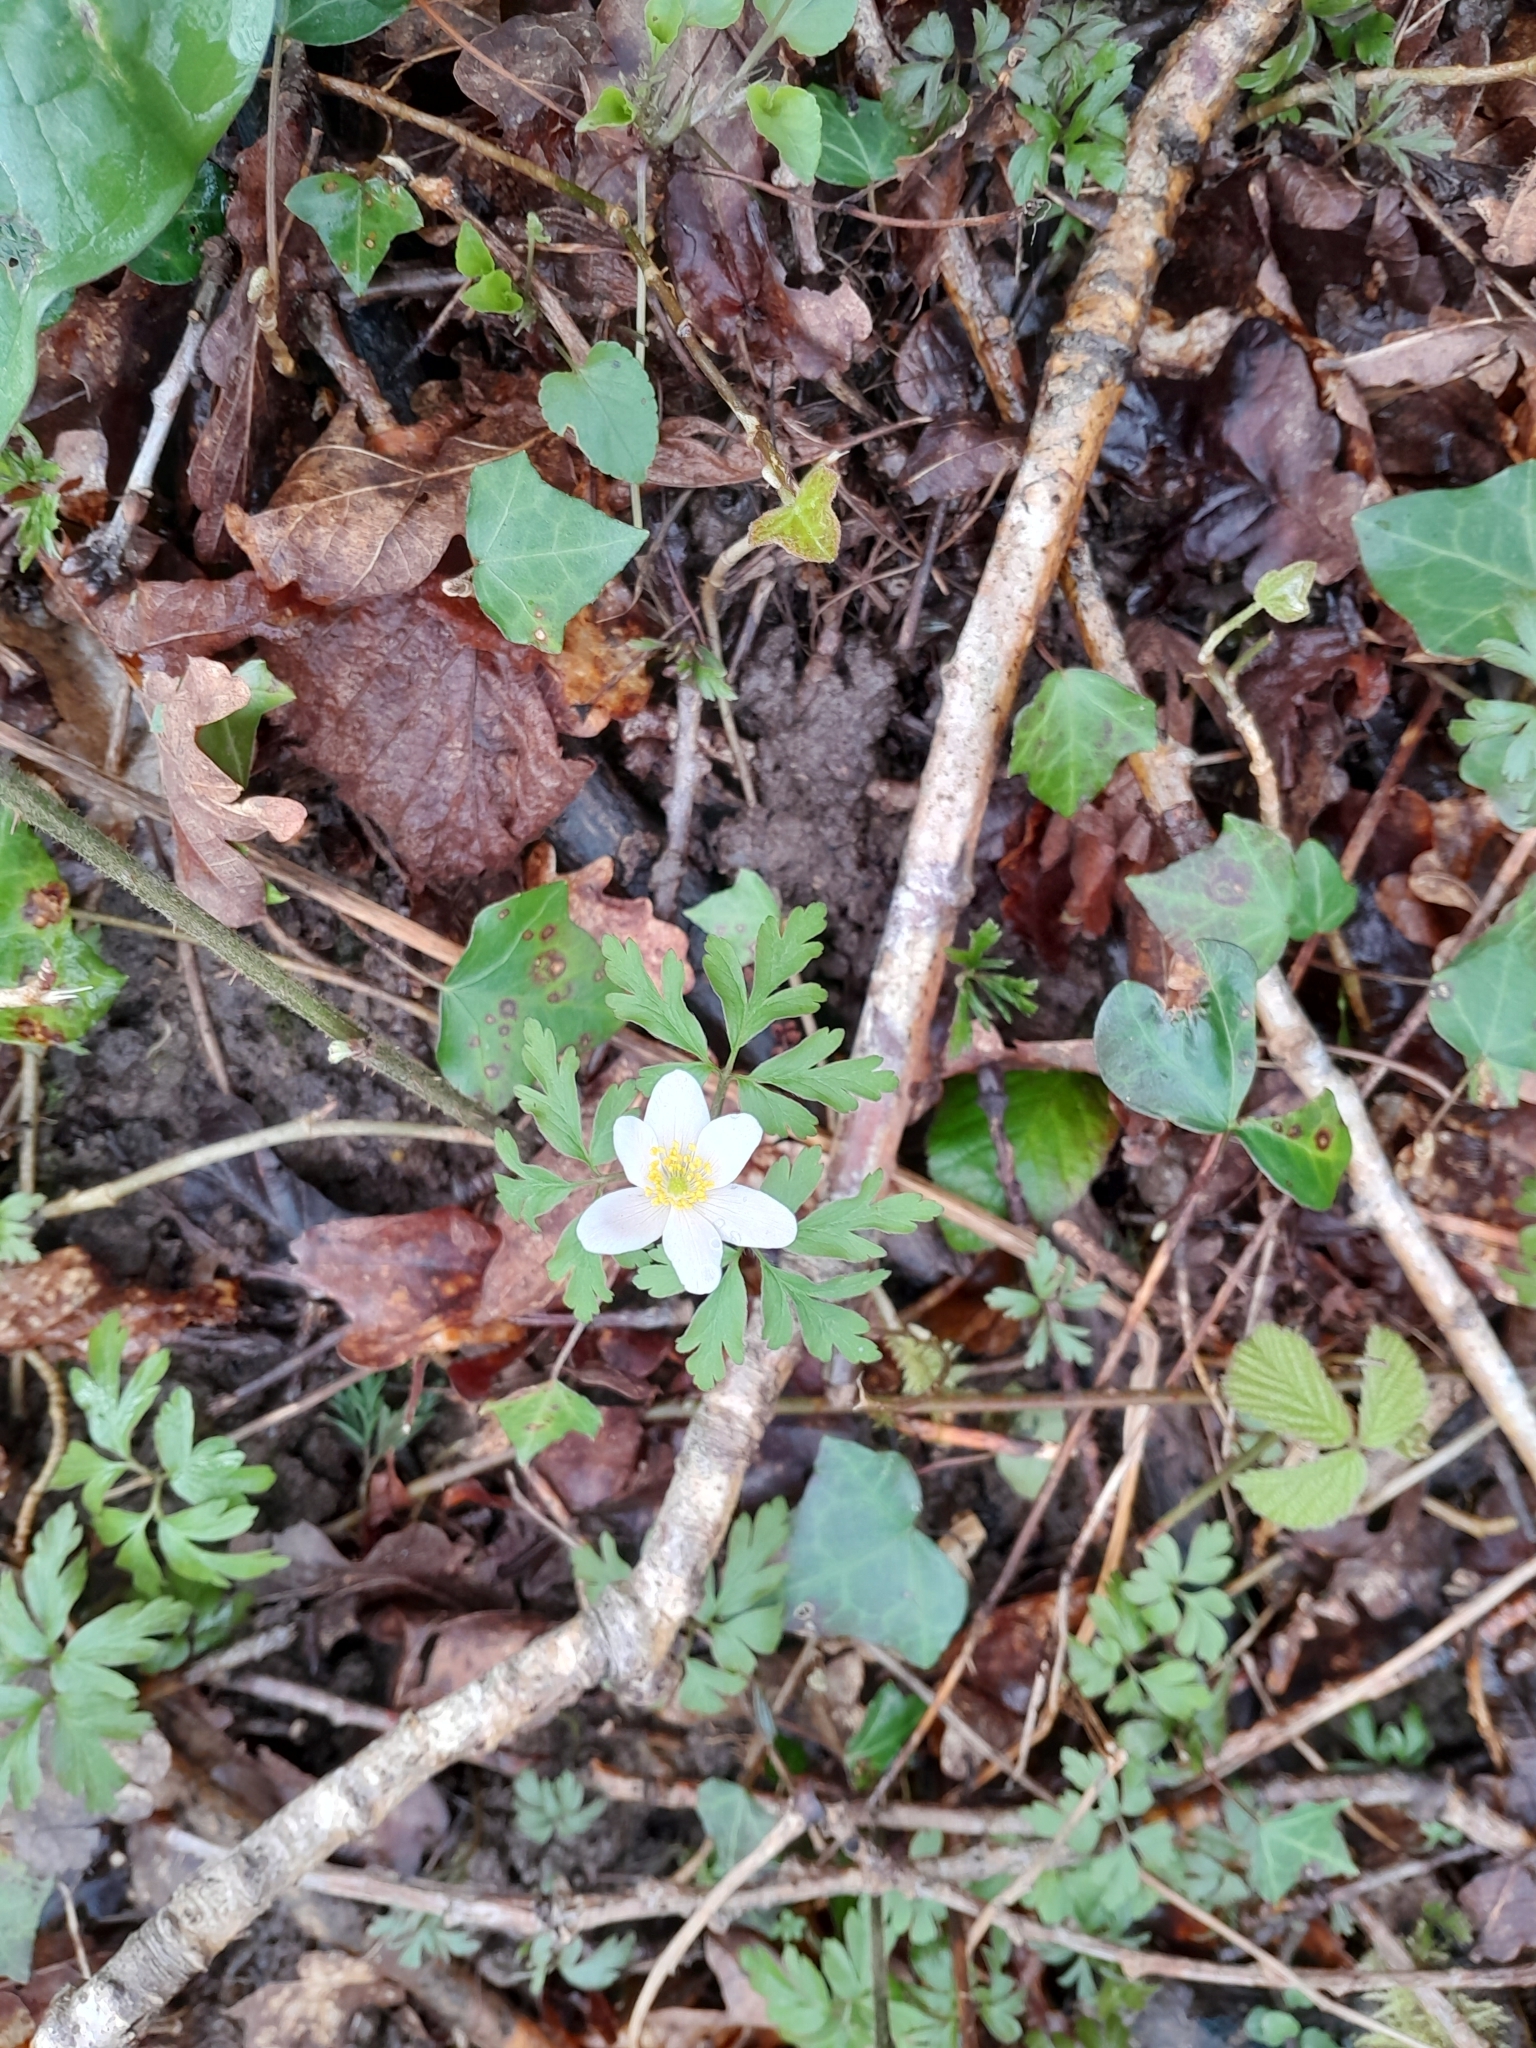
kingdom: Plantae
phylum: Tracheophyta
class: Magnoliopsida
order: Ranunculales
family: Ranunculaceae
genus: Anemone
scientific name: Anemone nemorosa
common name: Wood anemone
